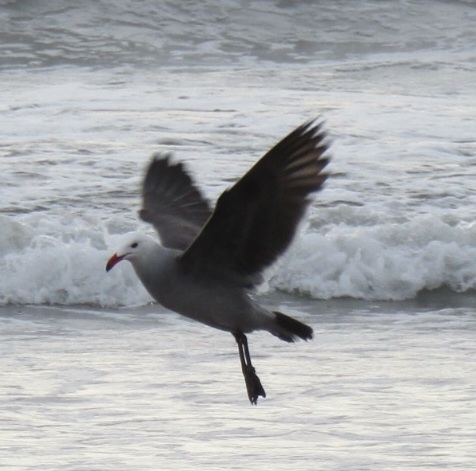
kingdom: Animalia
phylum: Chordata
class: Aves
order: Charadriiformes
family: Laridae
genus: Larus
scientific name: Larus heermanni
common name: Heermann's gull
